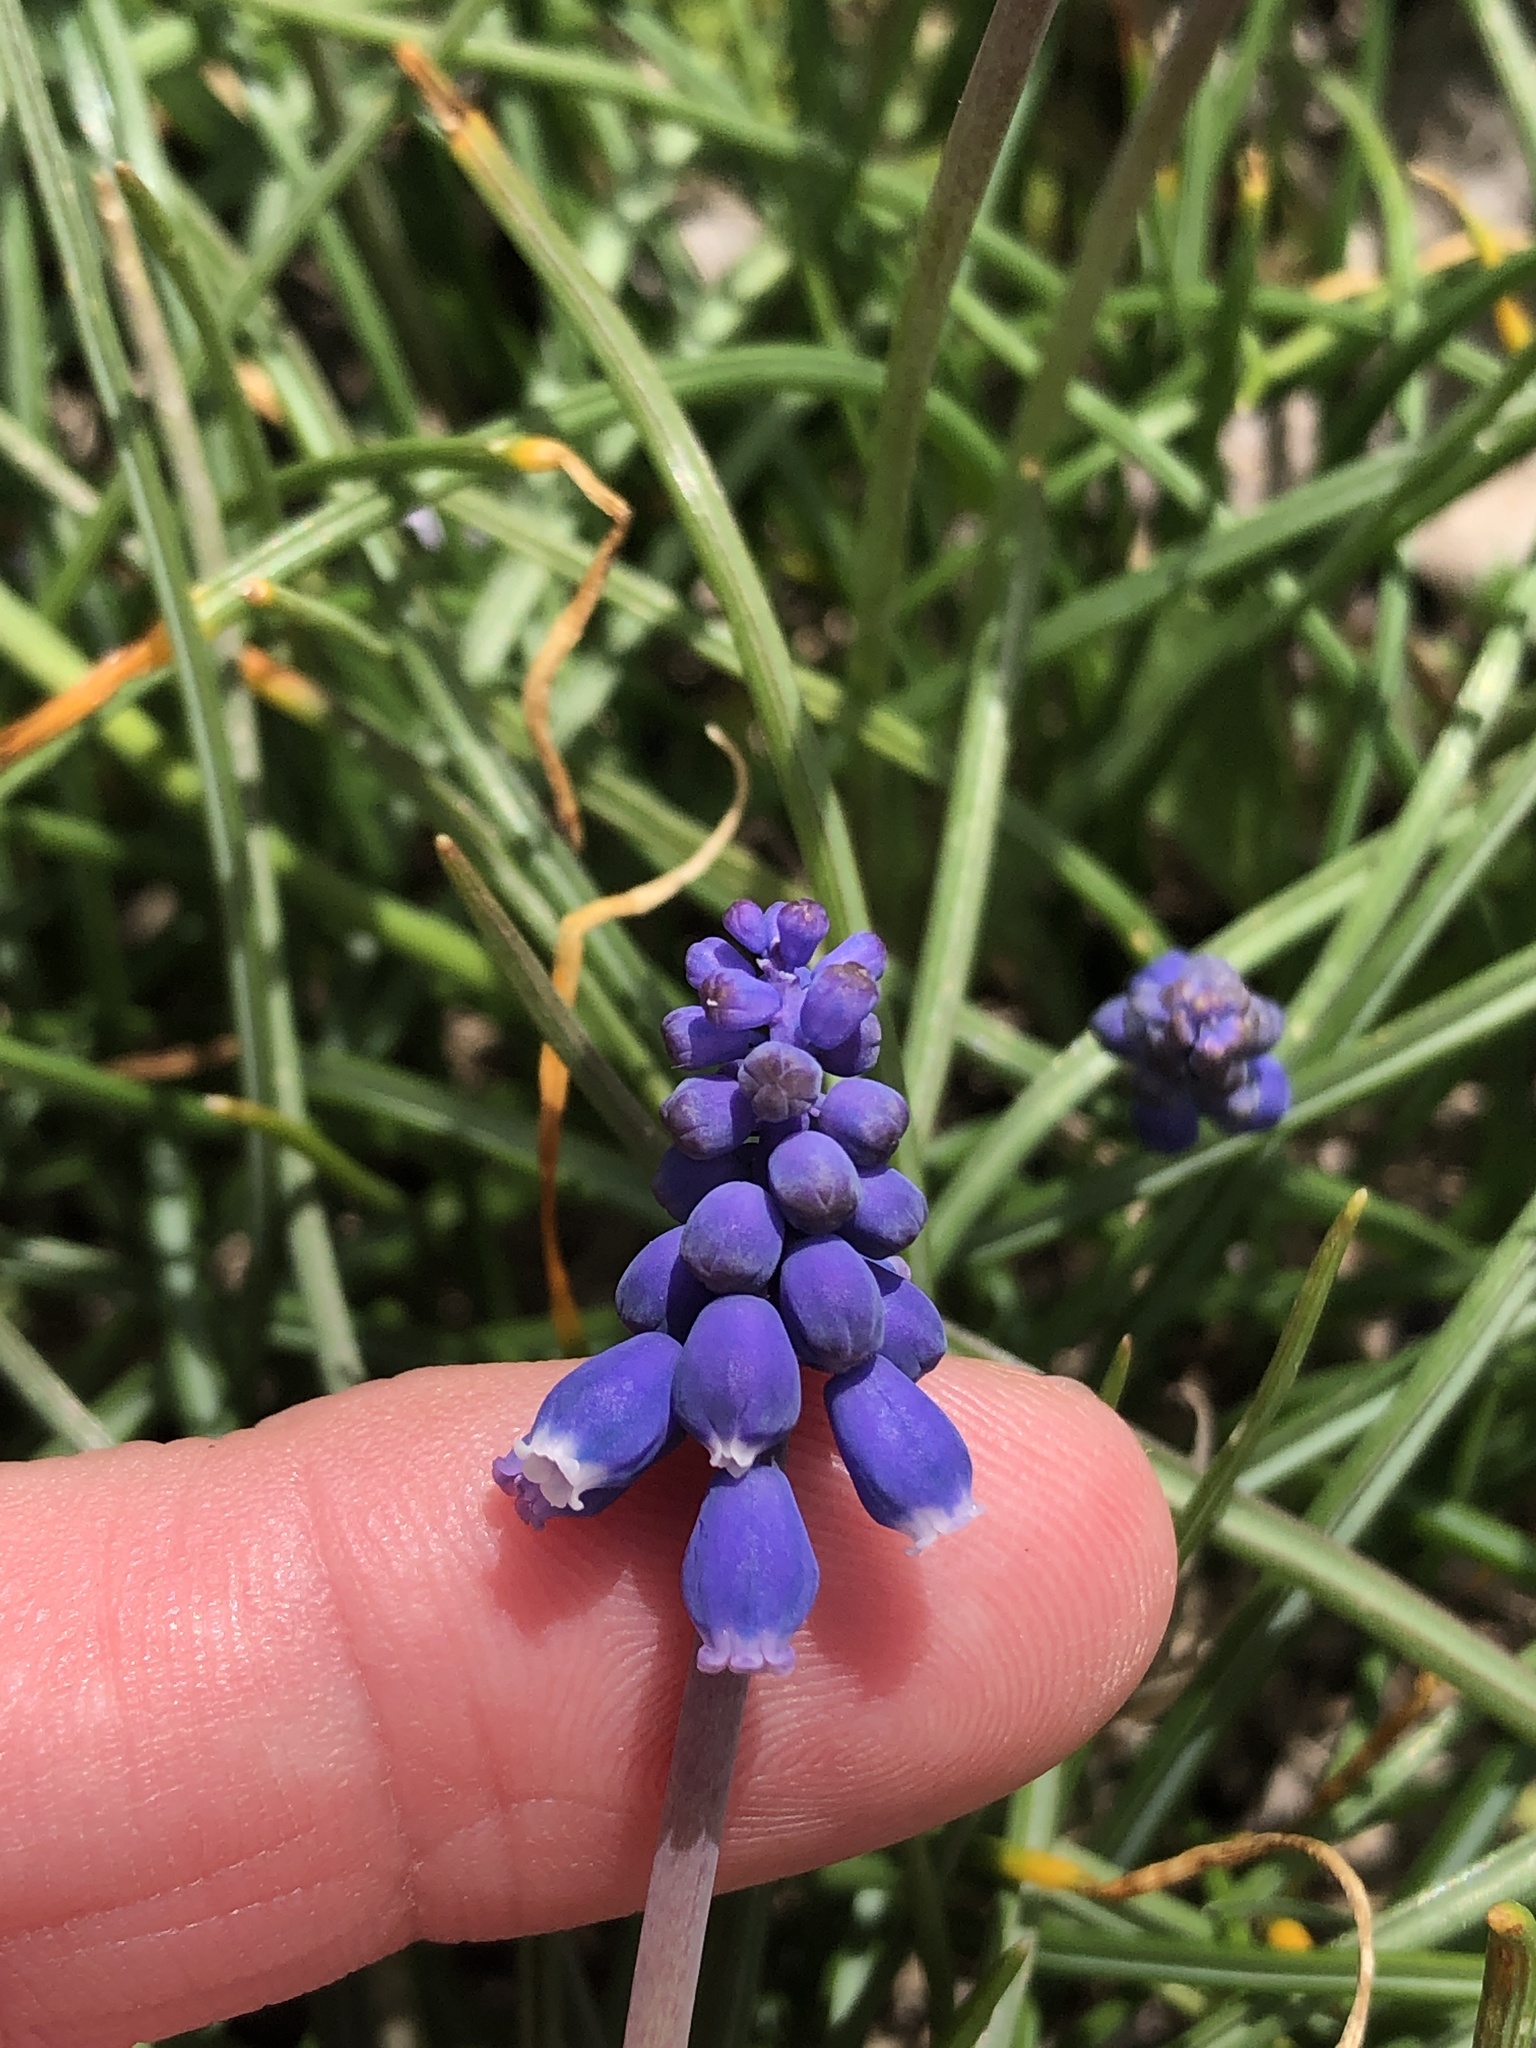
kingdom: Plantae
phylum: Tracheophyta
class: Liliopsida
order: Asparagales
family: Asparagaceae
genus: Muscari
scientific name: Muscari neglectum
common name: Grape-hyacinth
